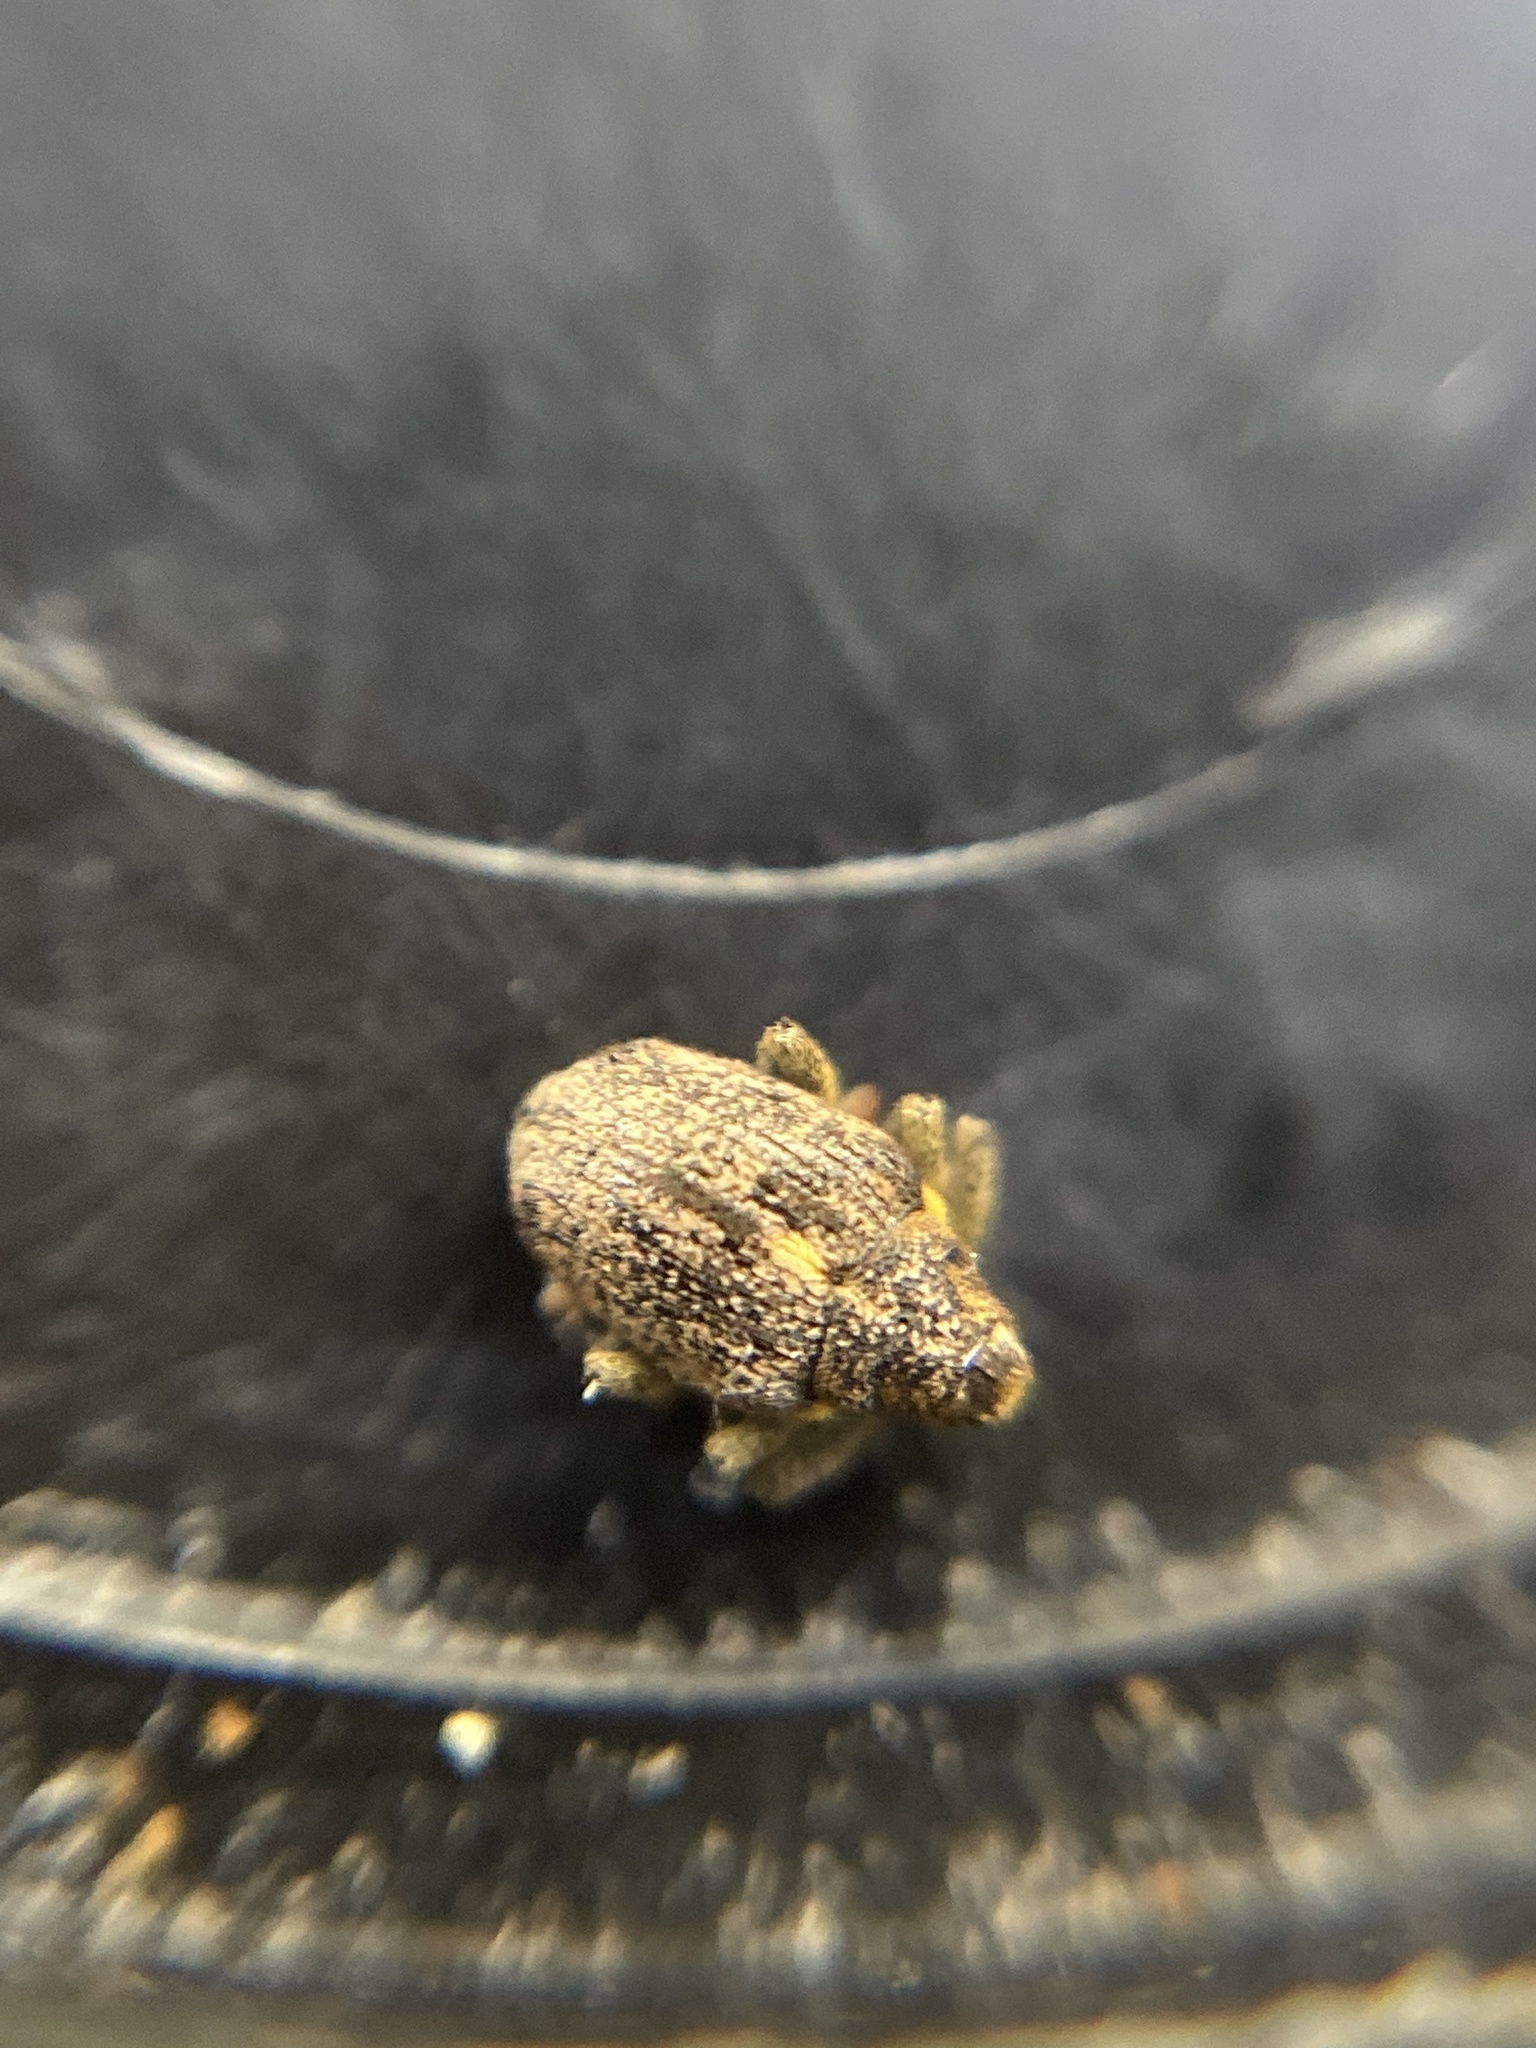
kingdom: Animalia
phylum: Arthropoda
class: Insecta
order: Coleoptera
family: Curculionidae
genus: Ceutorhynchus
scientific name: Ceutorhynchus pallidactylus
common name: Cabbage stem weavil
